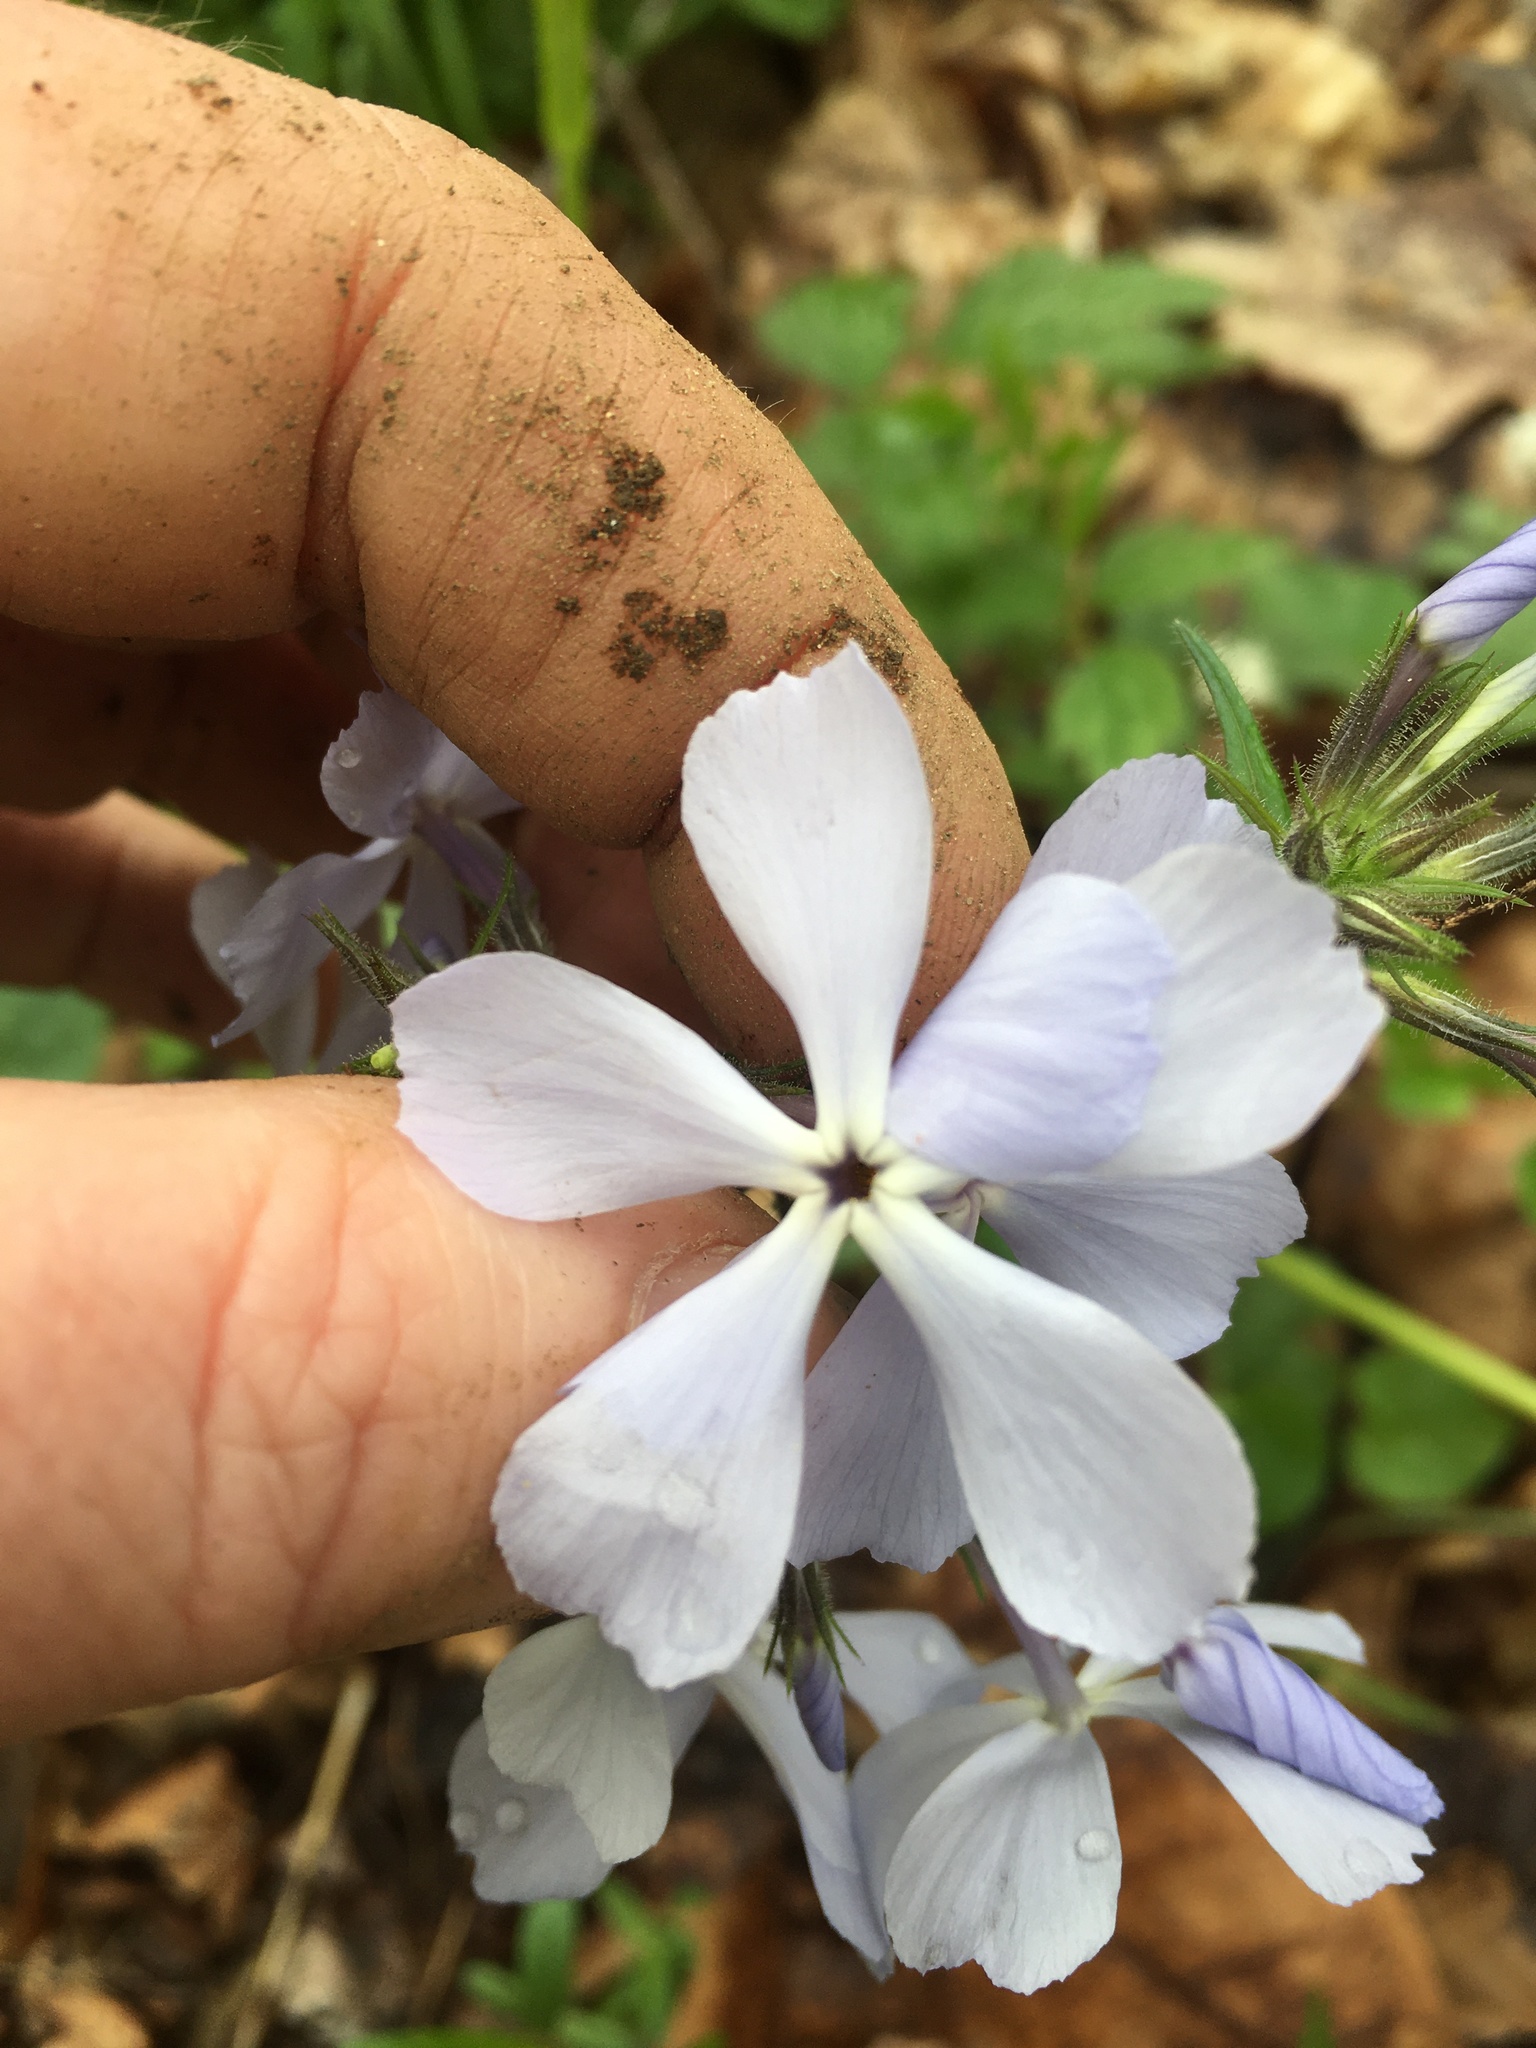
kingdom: Plantae
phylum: Tracheophyta
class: Magnoliopsida
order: Ericales
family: Polemoniaceae
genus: Phlox
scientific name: Phlox divaricata
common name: Blue phlox
